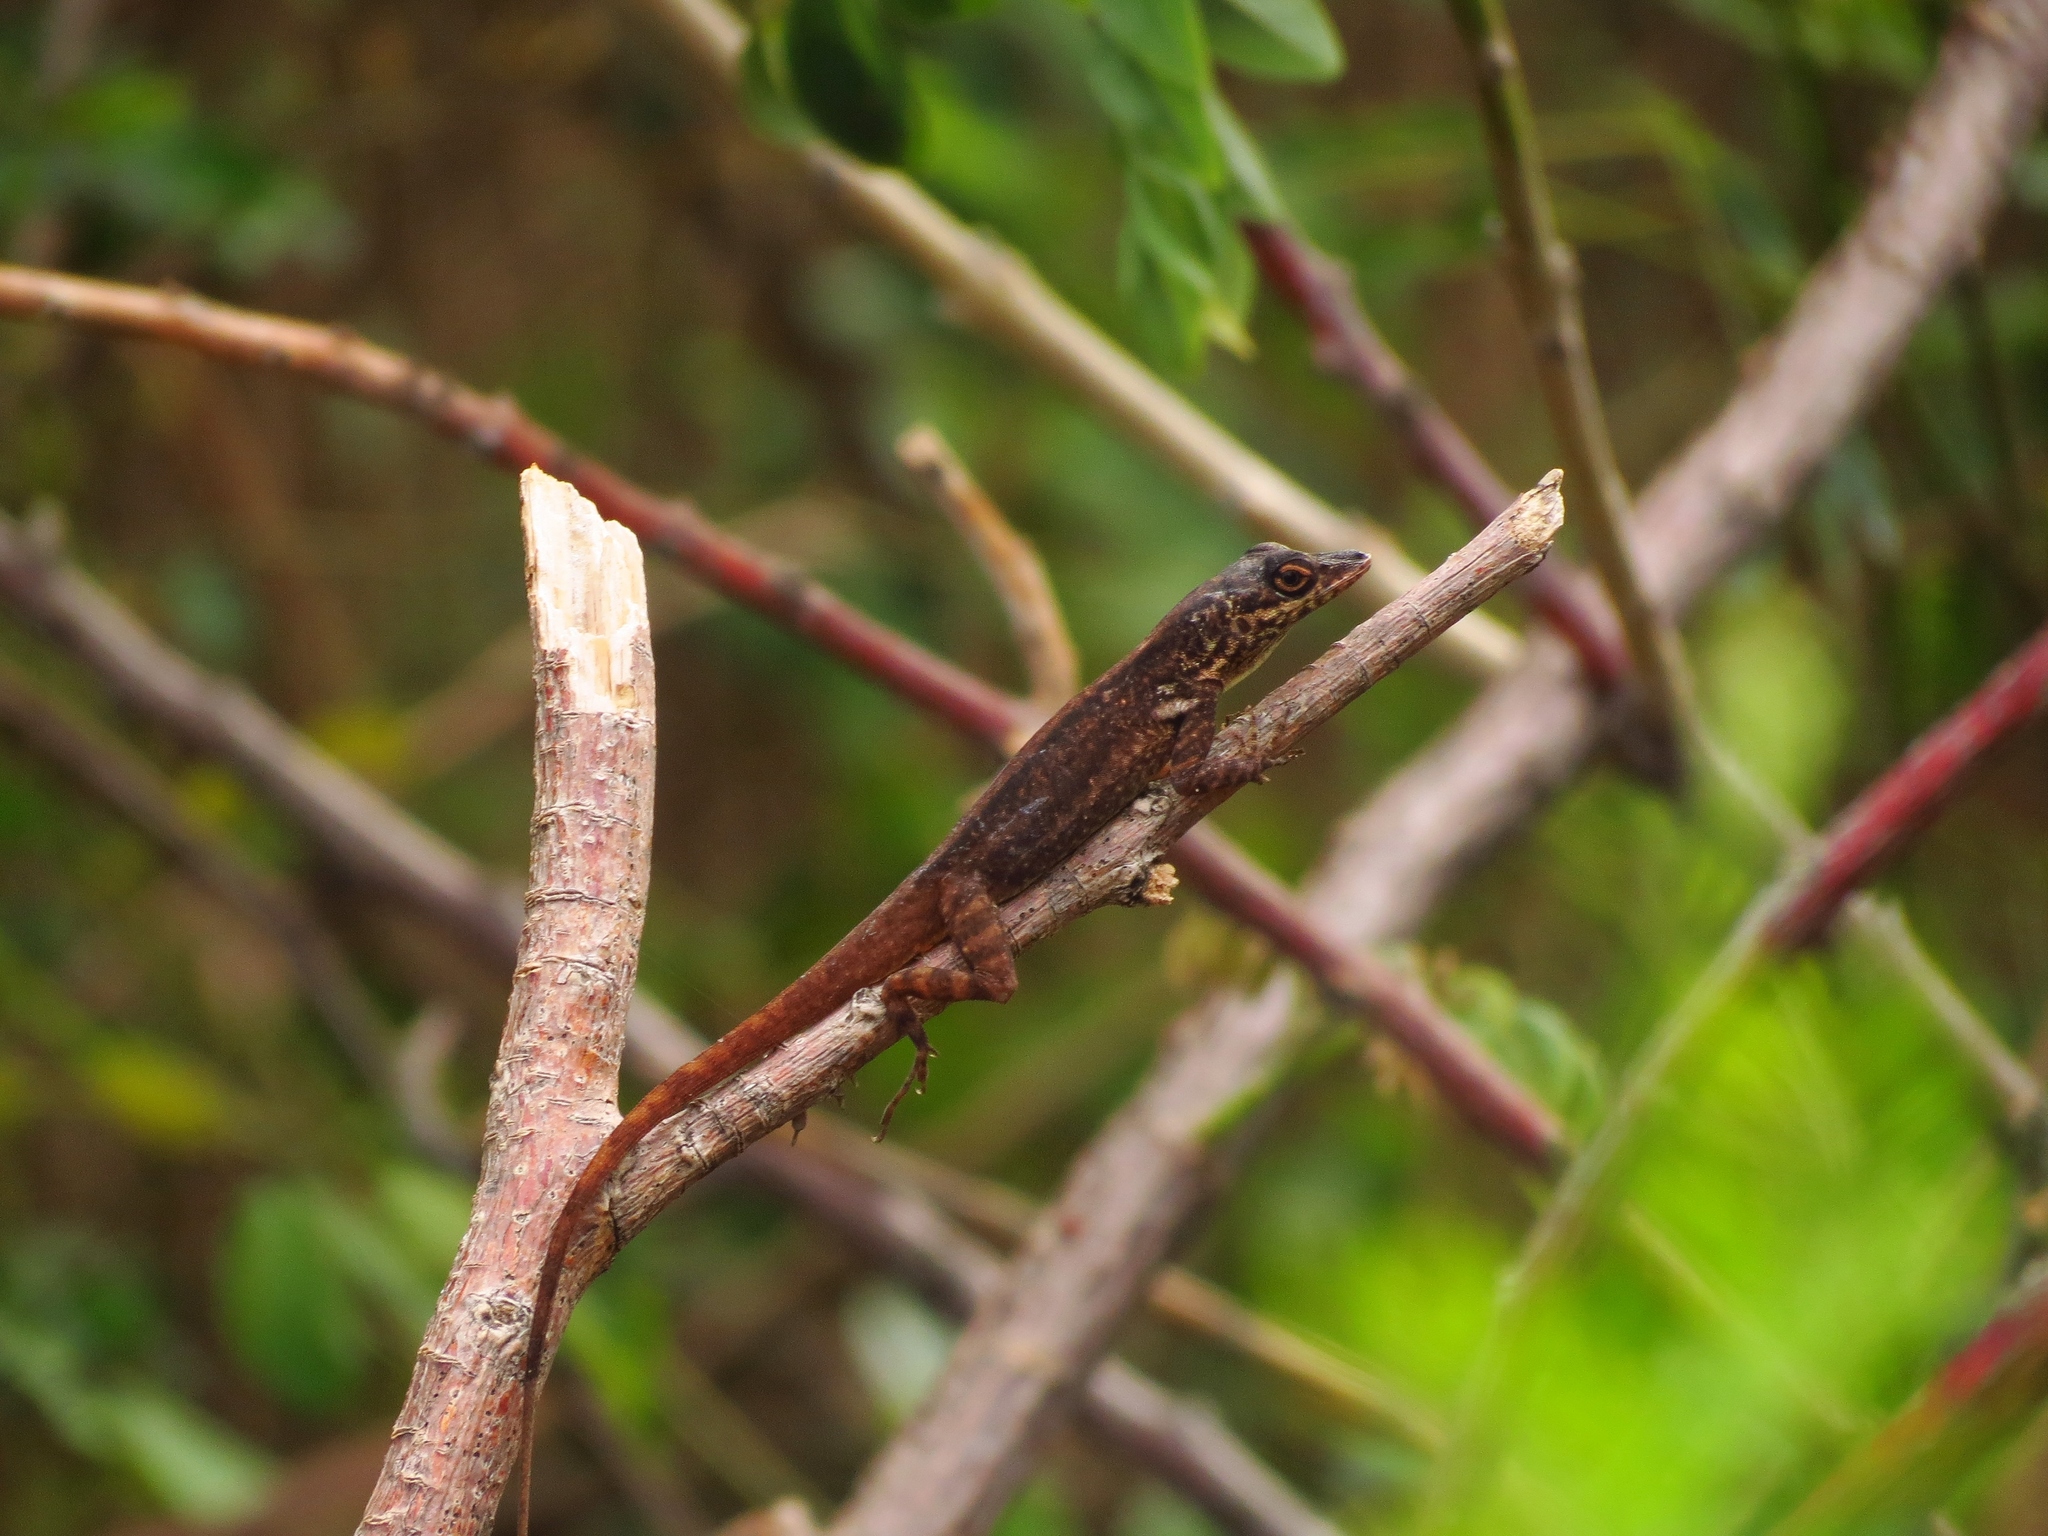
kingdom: Animalia
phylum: Chordata
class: Squamata
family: Dactyloidae
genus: Anolis
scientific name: Anolis roquet
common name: Martinique anole
